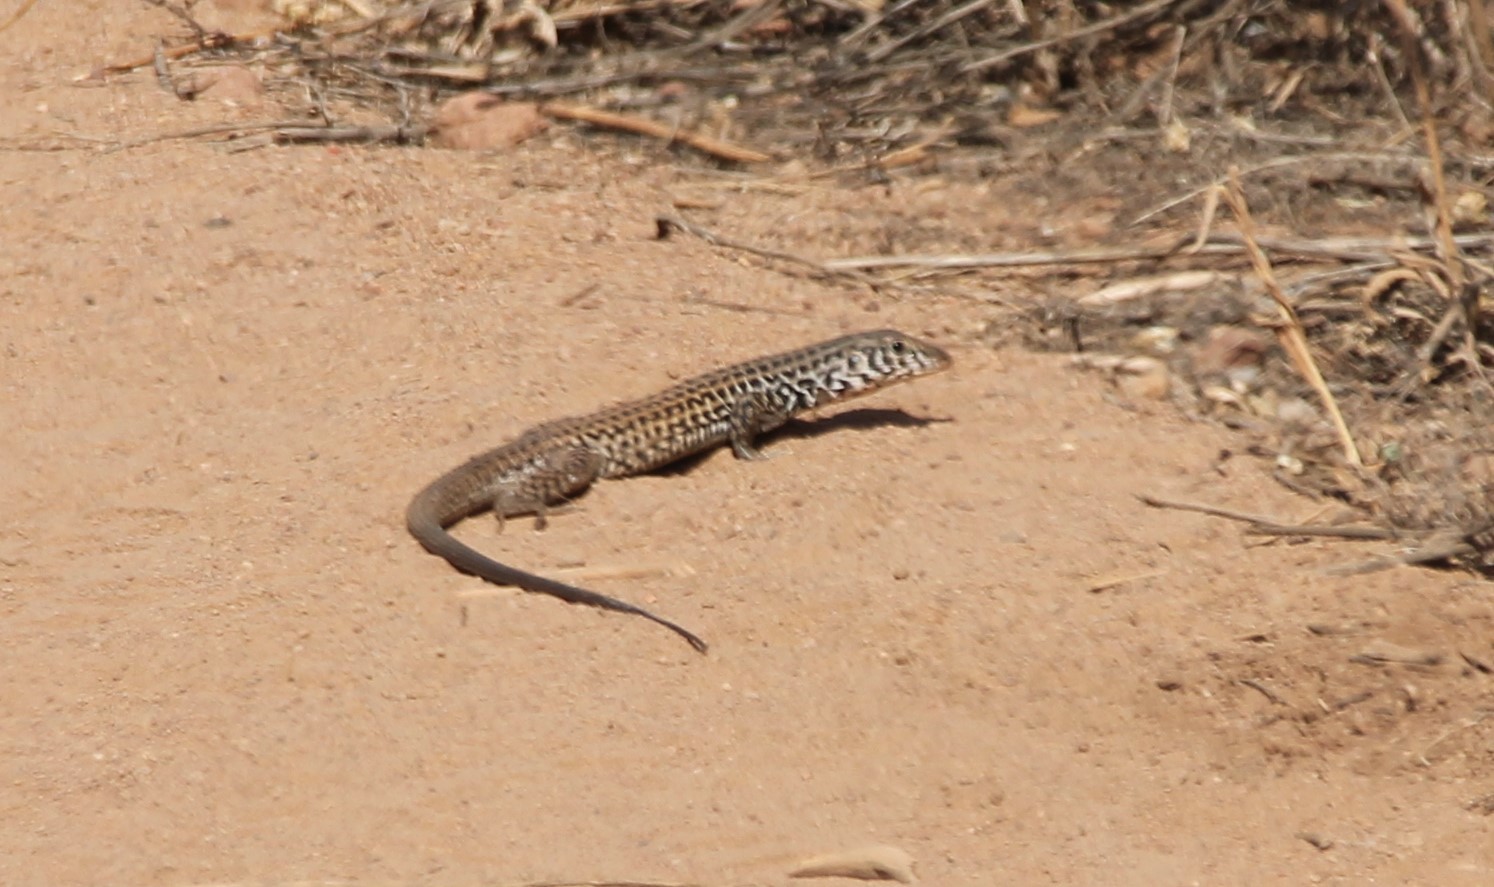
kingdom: Animalia
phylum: Chordata
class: Squamata
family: Teiidae
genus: Aspidoscelis
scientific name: Aspidoscelis tigris
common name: Tiger whiptail
